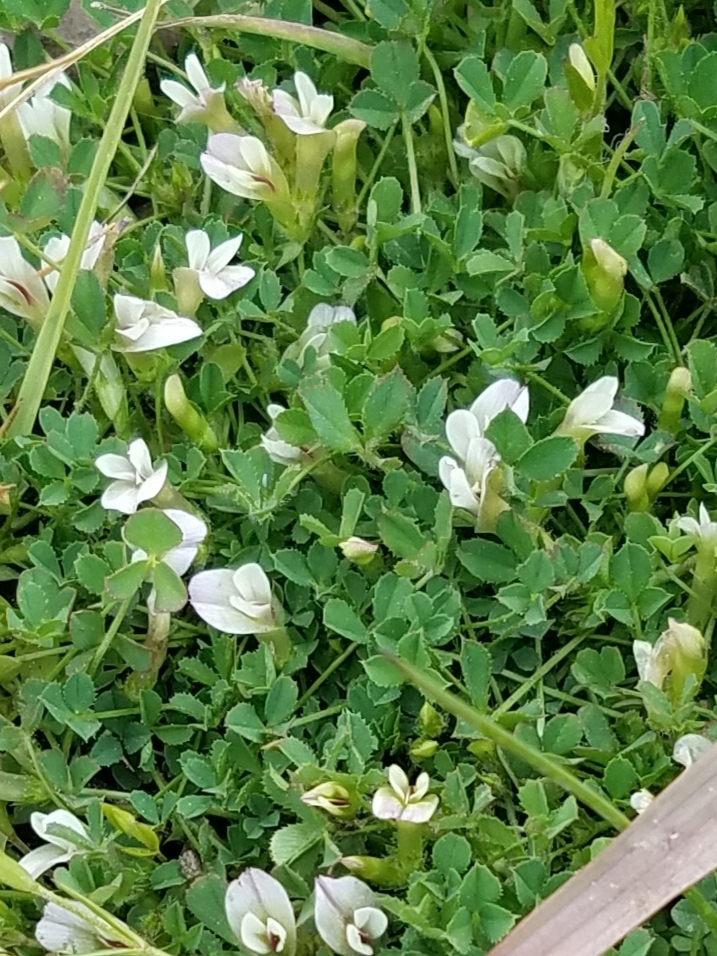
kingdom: Plantae
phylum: Tracheophyta
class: Magnoliopsida
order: Fabales
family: Fabaceae
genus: Trifolium
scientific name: Trifolium monanthum
